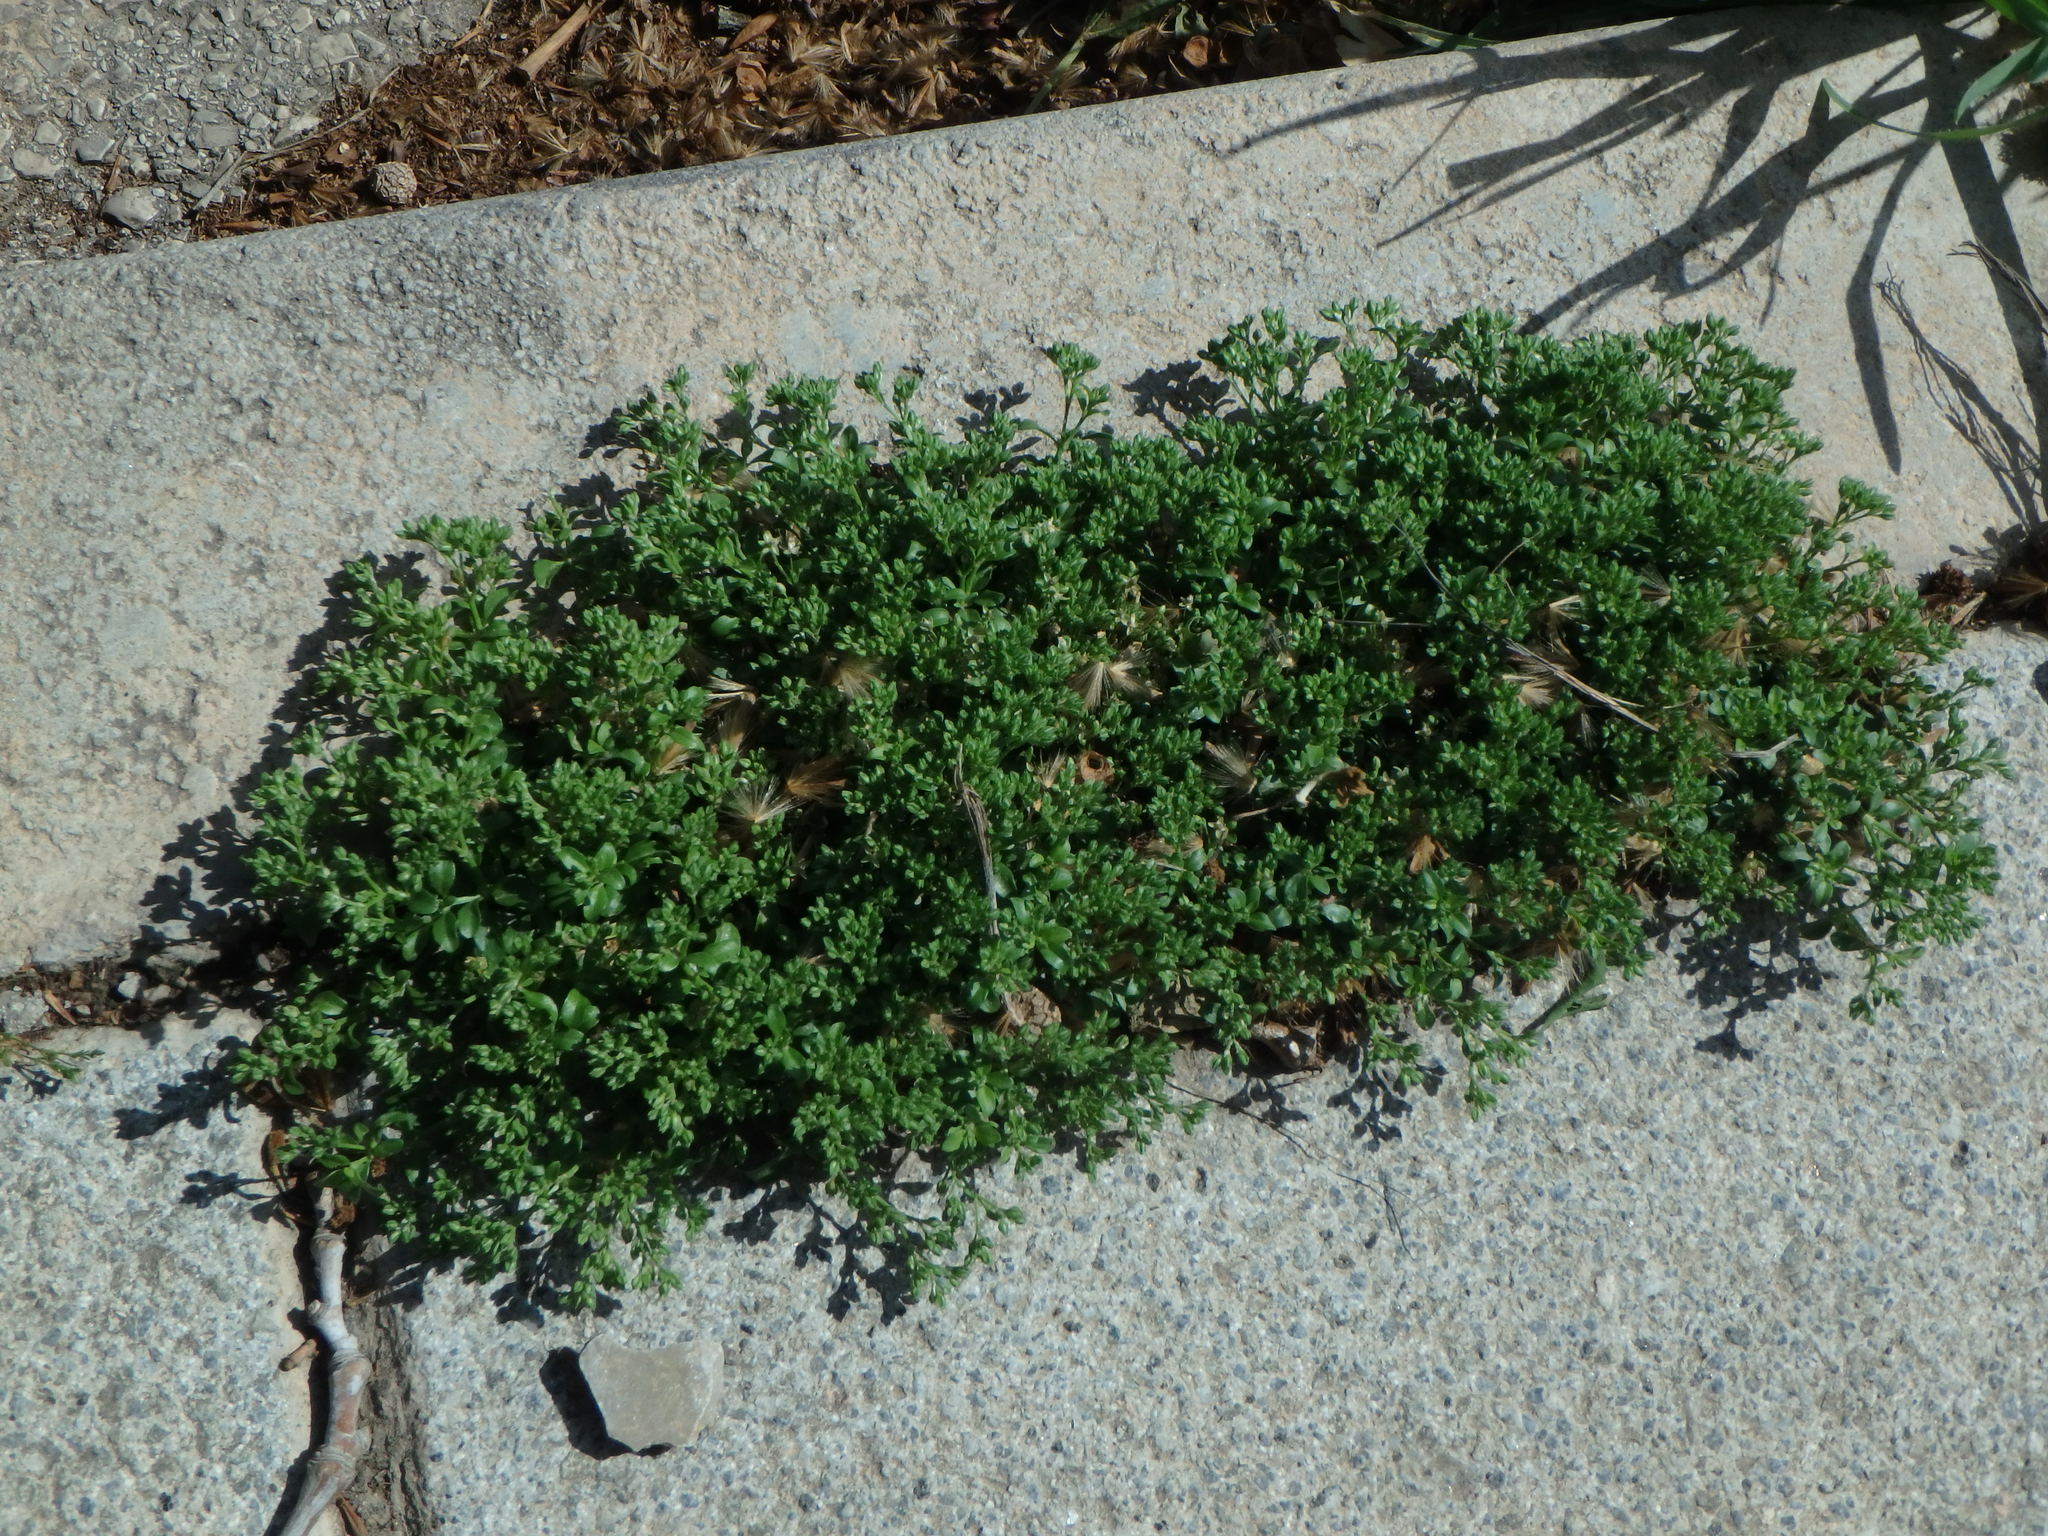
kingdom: Plantae
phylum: Tracheophyta
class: Magnoliopsida
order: Caryophyllales
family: Caryophyllaceae
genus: Polycarpon
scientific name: Polycarpon tetraphyllum
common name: Four-leaved all-seed
